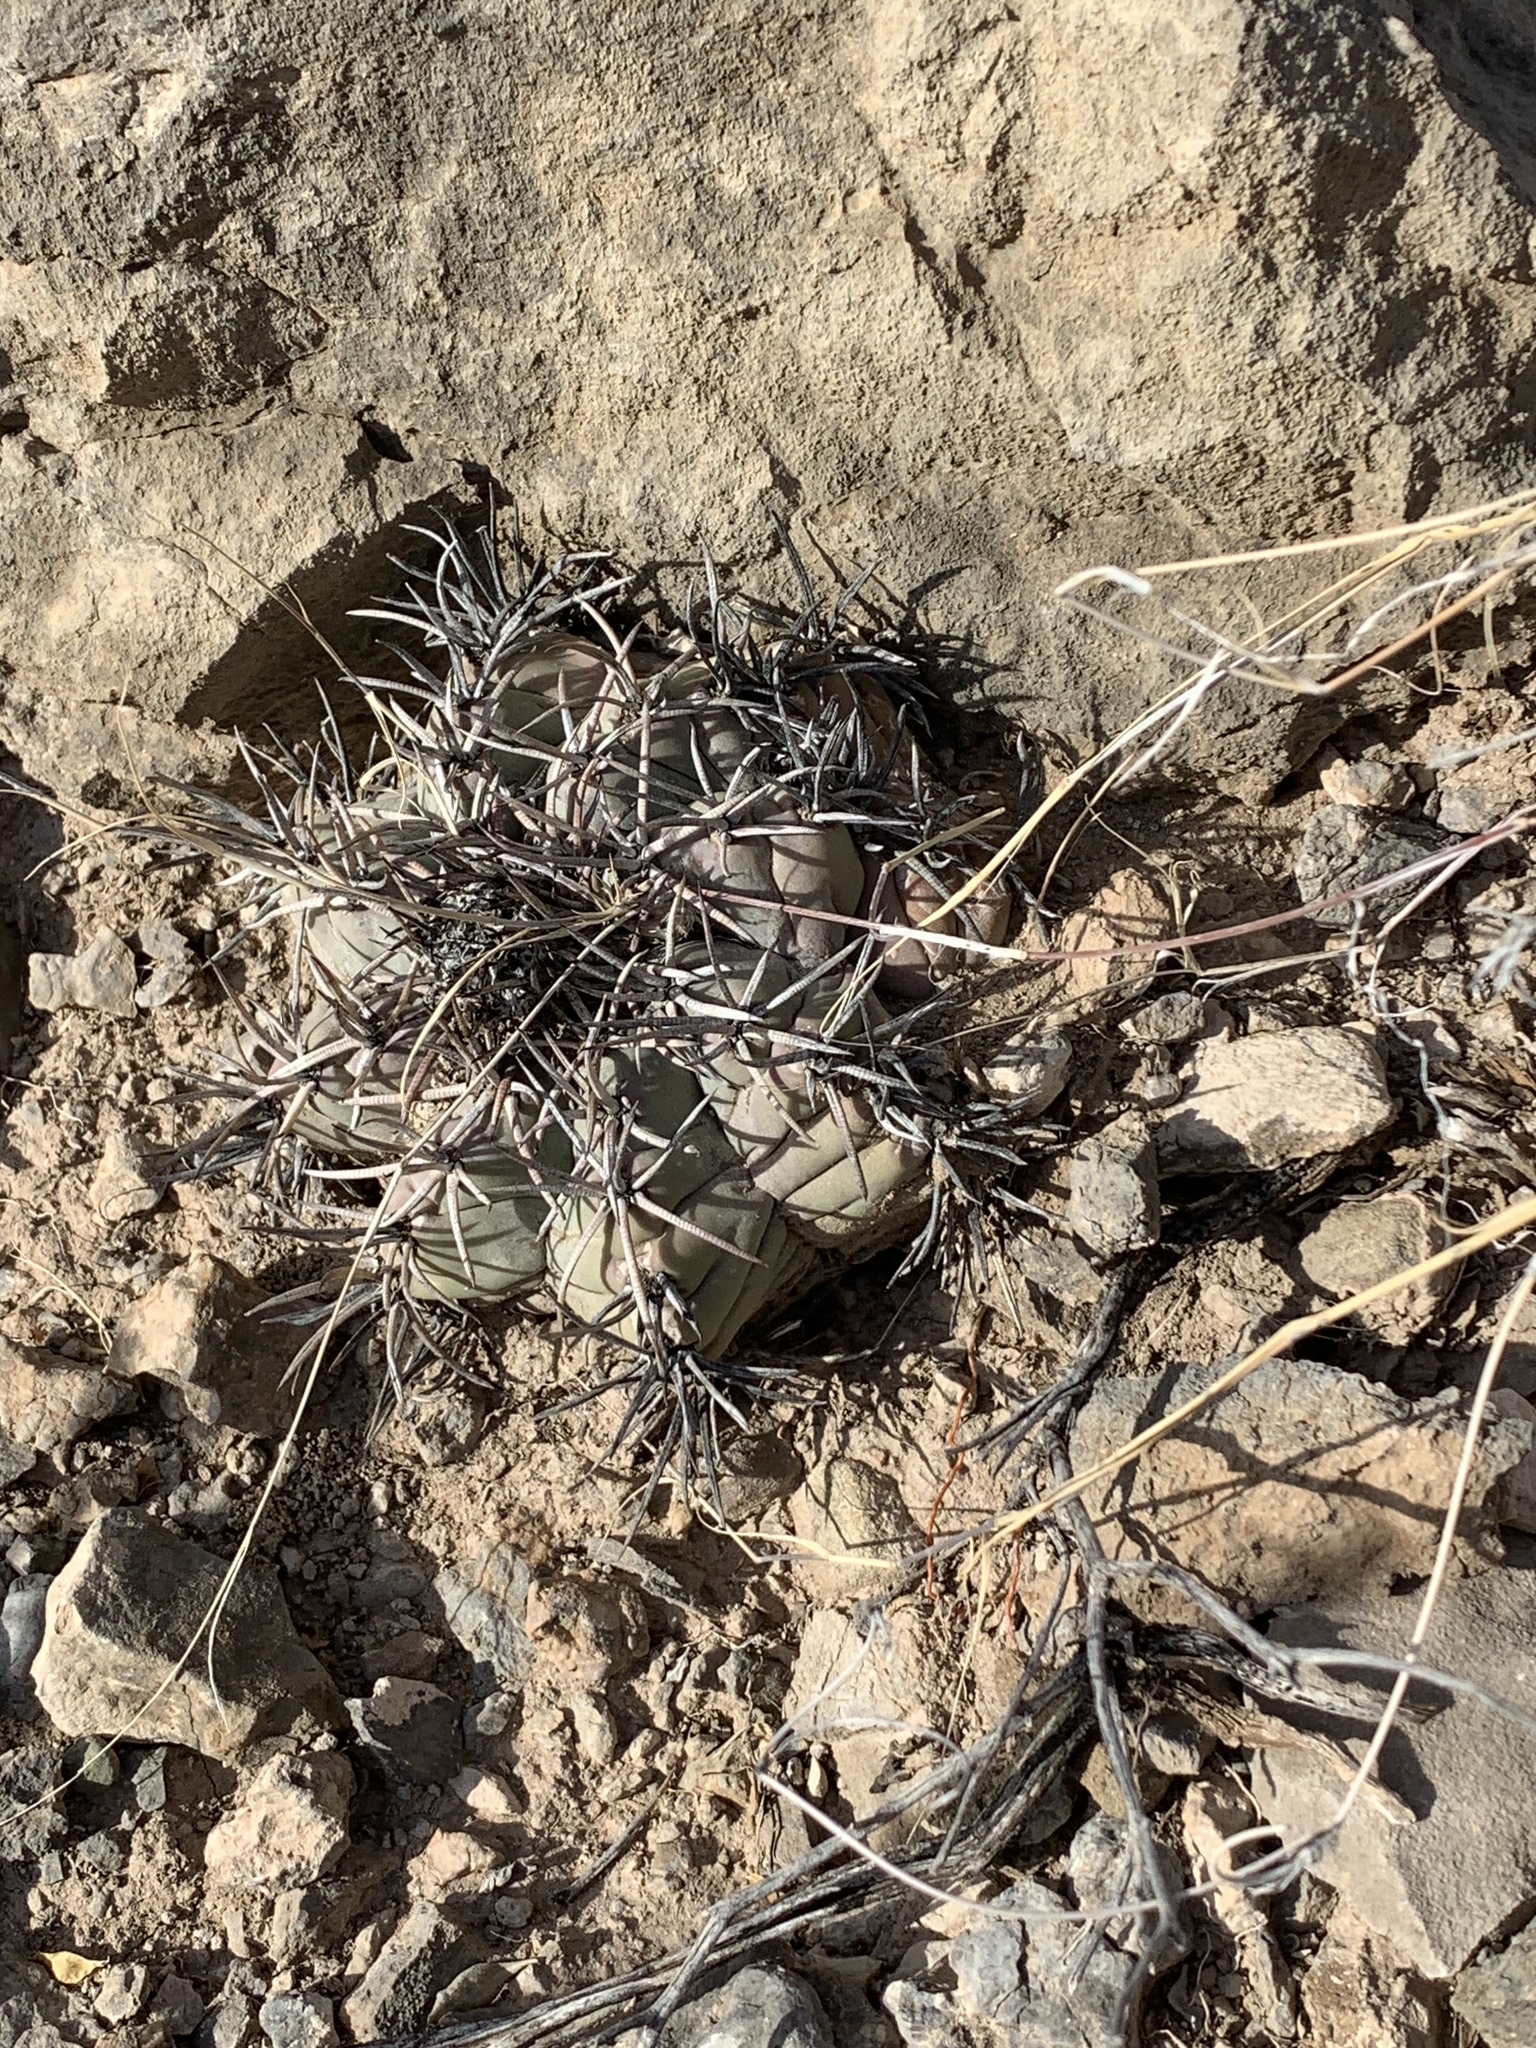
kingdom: Plantae
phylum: Tracheophyta
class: Magnoliopsida
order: Caryophyllales
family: Cactaceae
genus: Echinocactus
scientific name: Echinocactus horizonthalonius
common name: Devilshead
